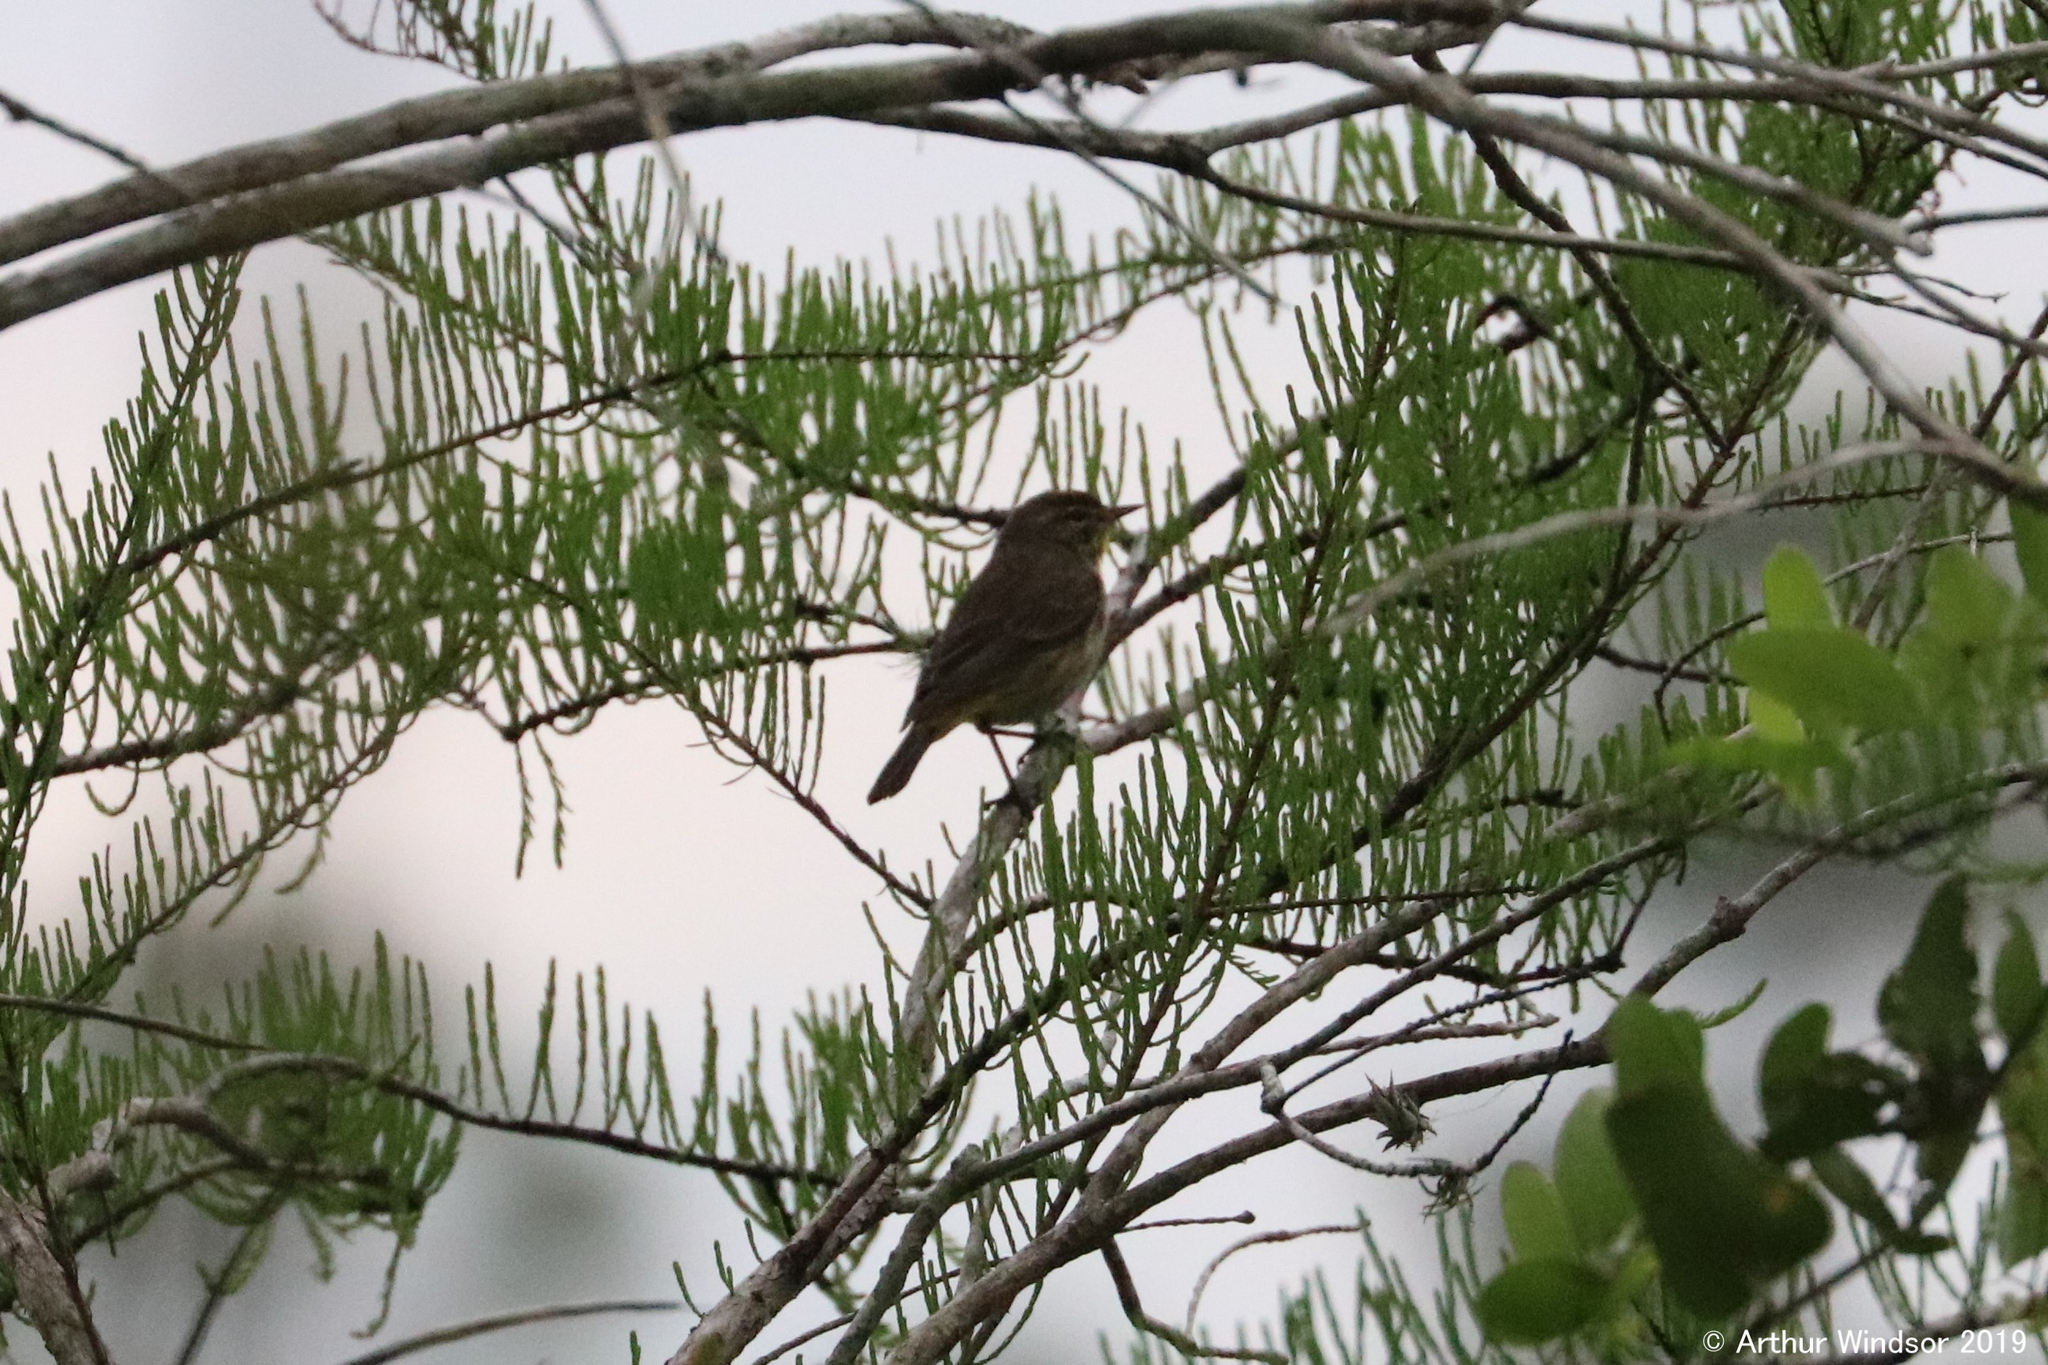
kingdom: Animalia
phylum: Chordata
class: Aves
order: Passeriformes
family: Parulidae
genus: Setophaga
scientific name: Setophaga palmarum
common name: Palm warbler
